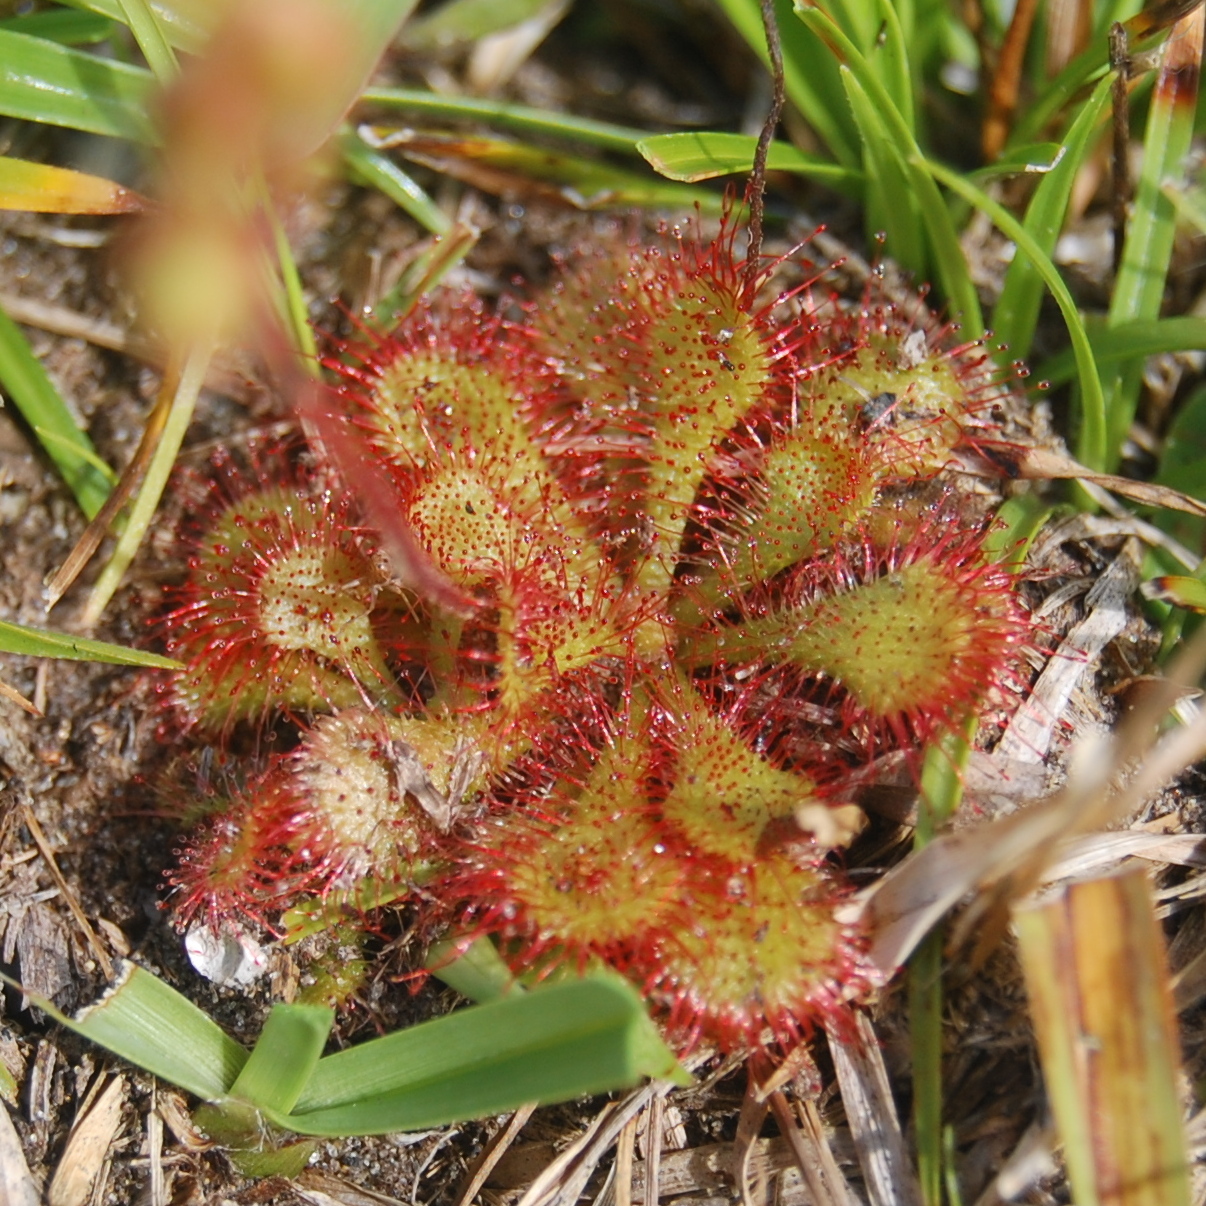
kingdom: Plantae
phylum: Tracheophyta
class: Magnoliopsida
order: Caryophyllales
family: Droseraceae
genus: Drosera
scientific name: Drosera brevifolia
